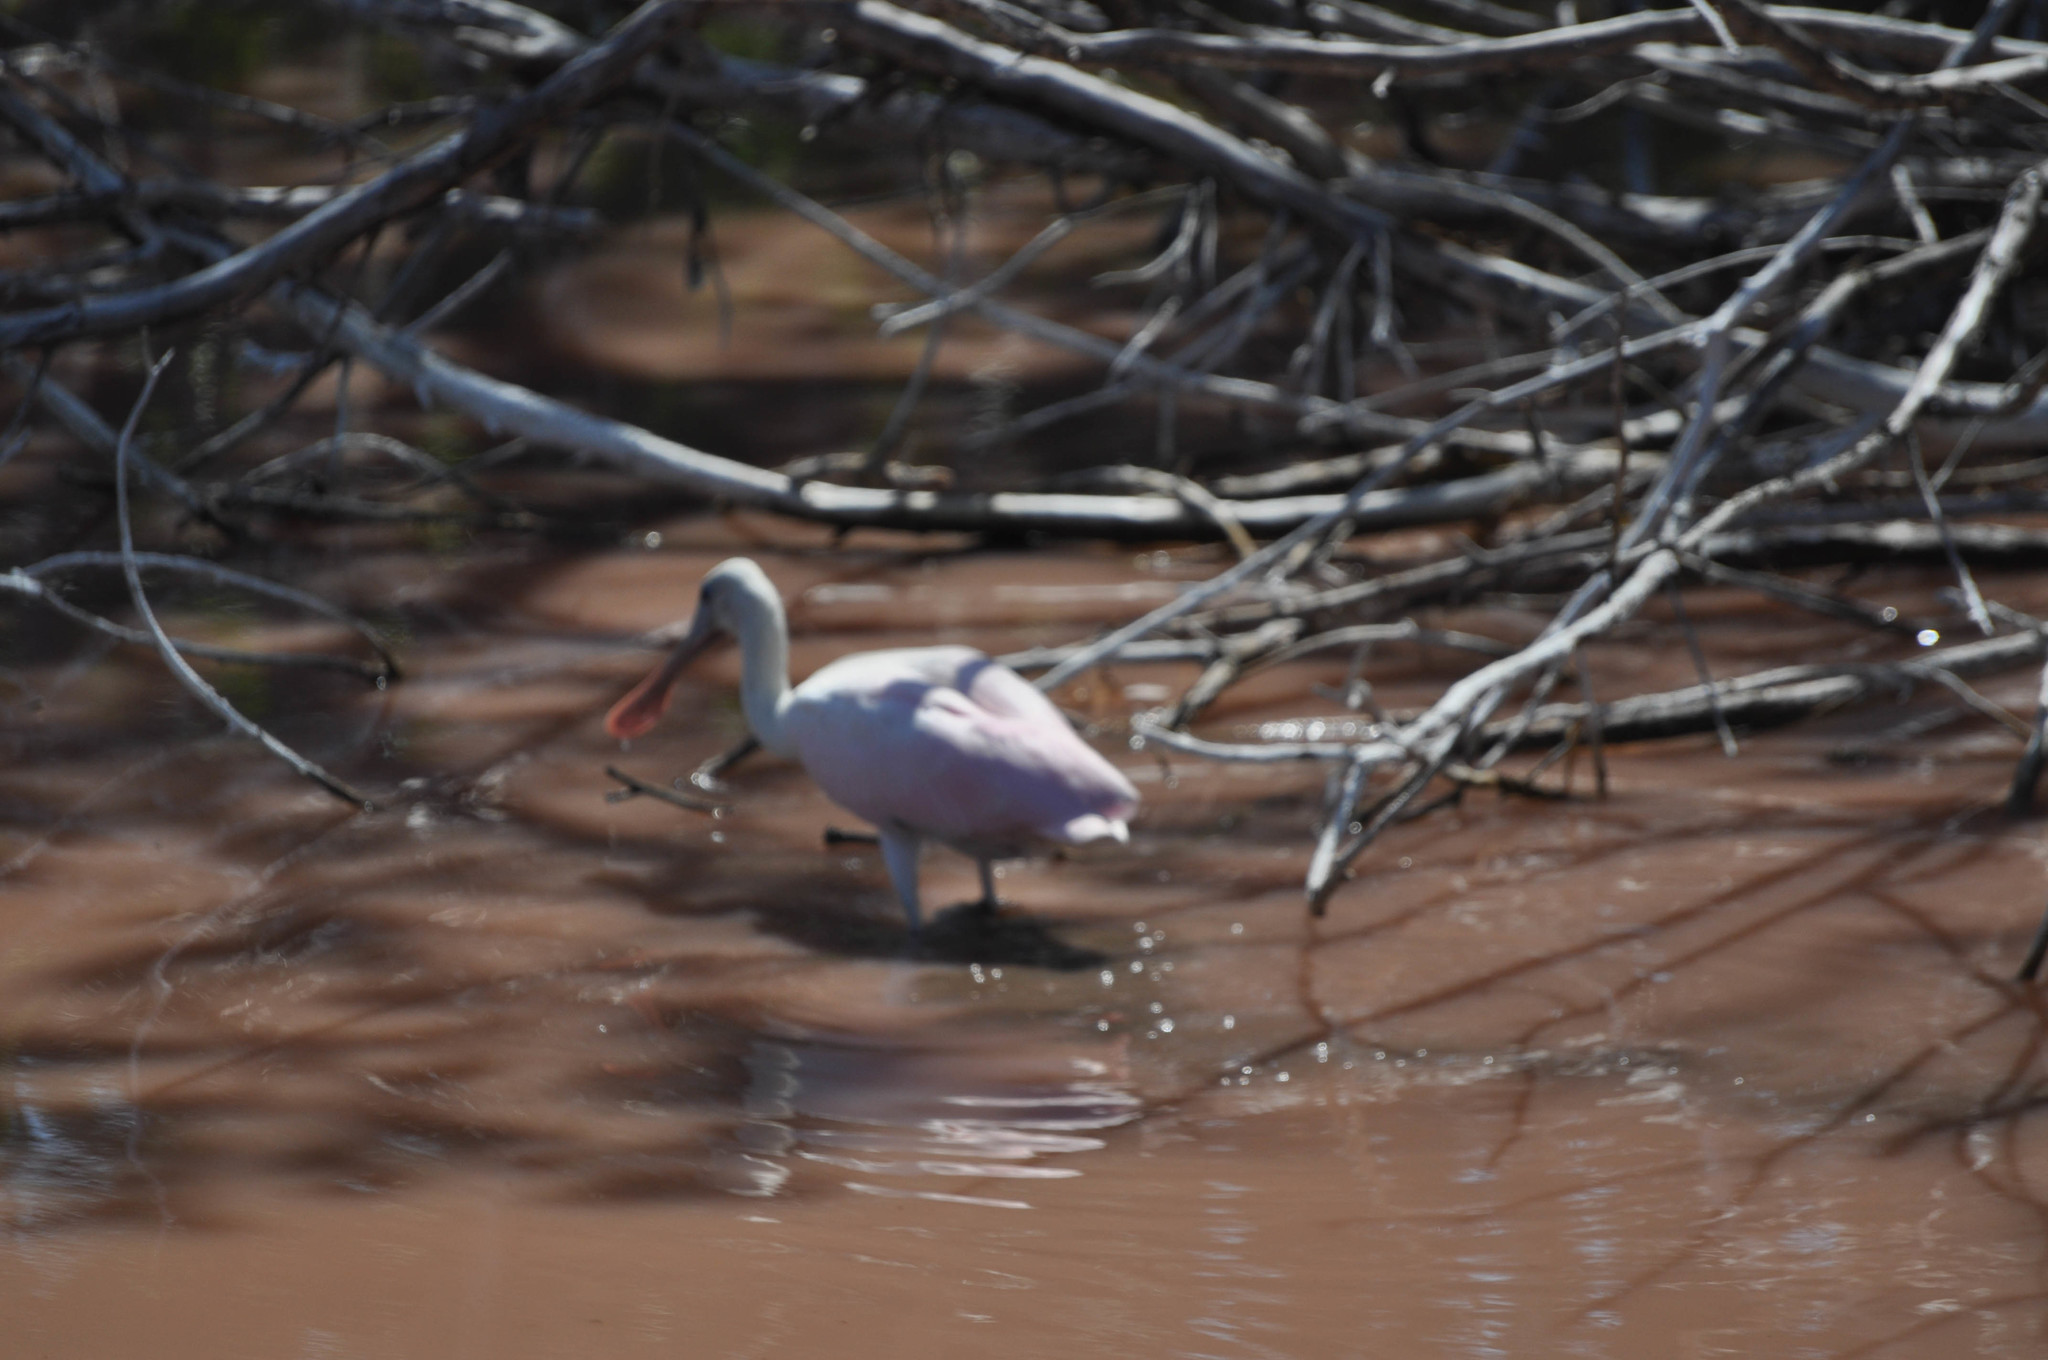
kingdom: Animalia
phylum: Chordata
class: Aves
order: Pelecaniformes
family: Threskiornithidae
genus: Platalea
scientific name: Platalea ajaja
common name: Roseate spoonbill
